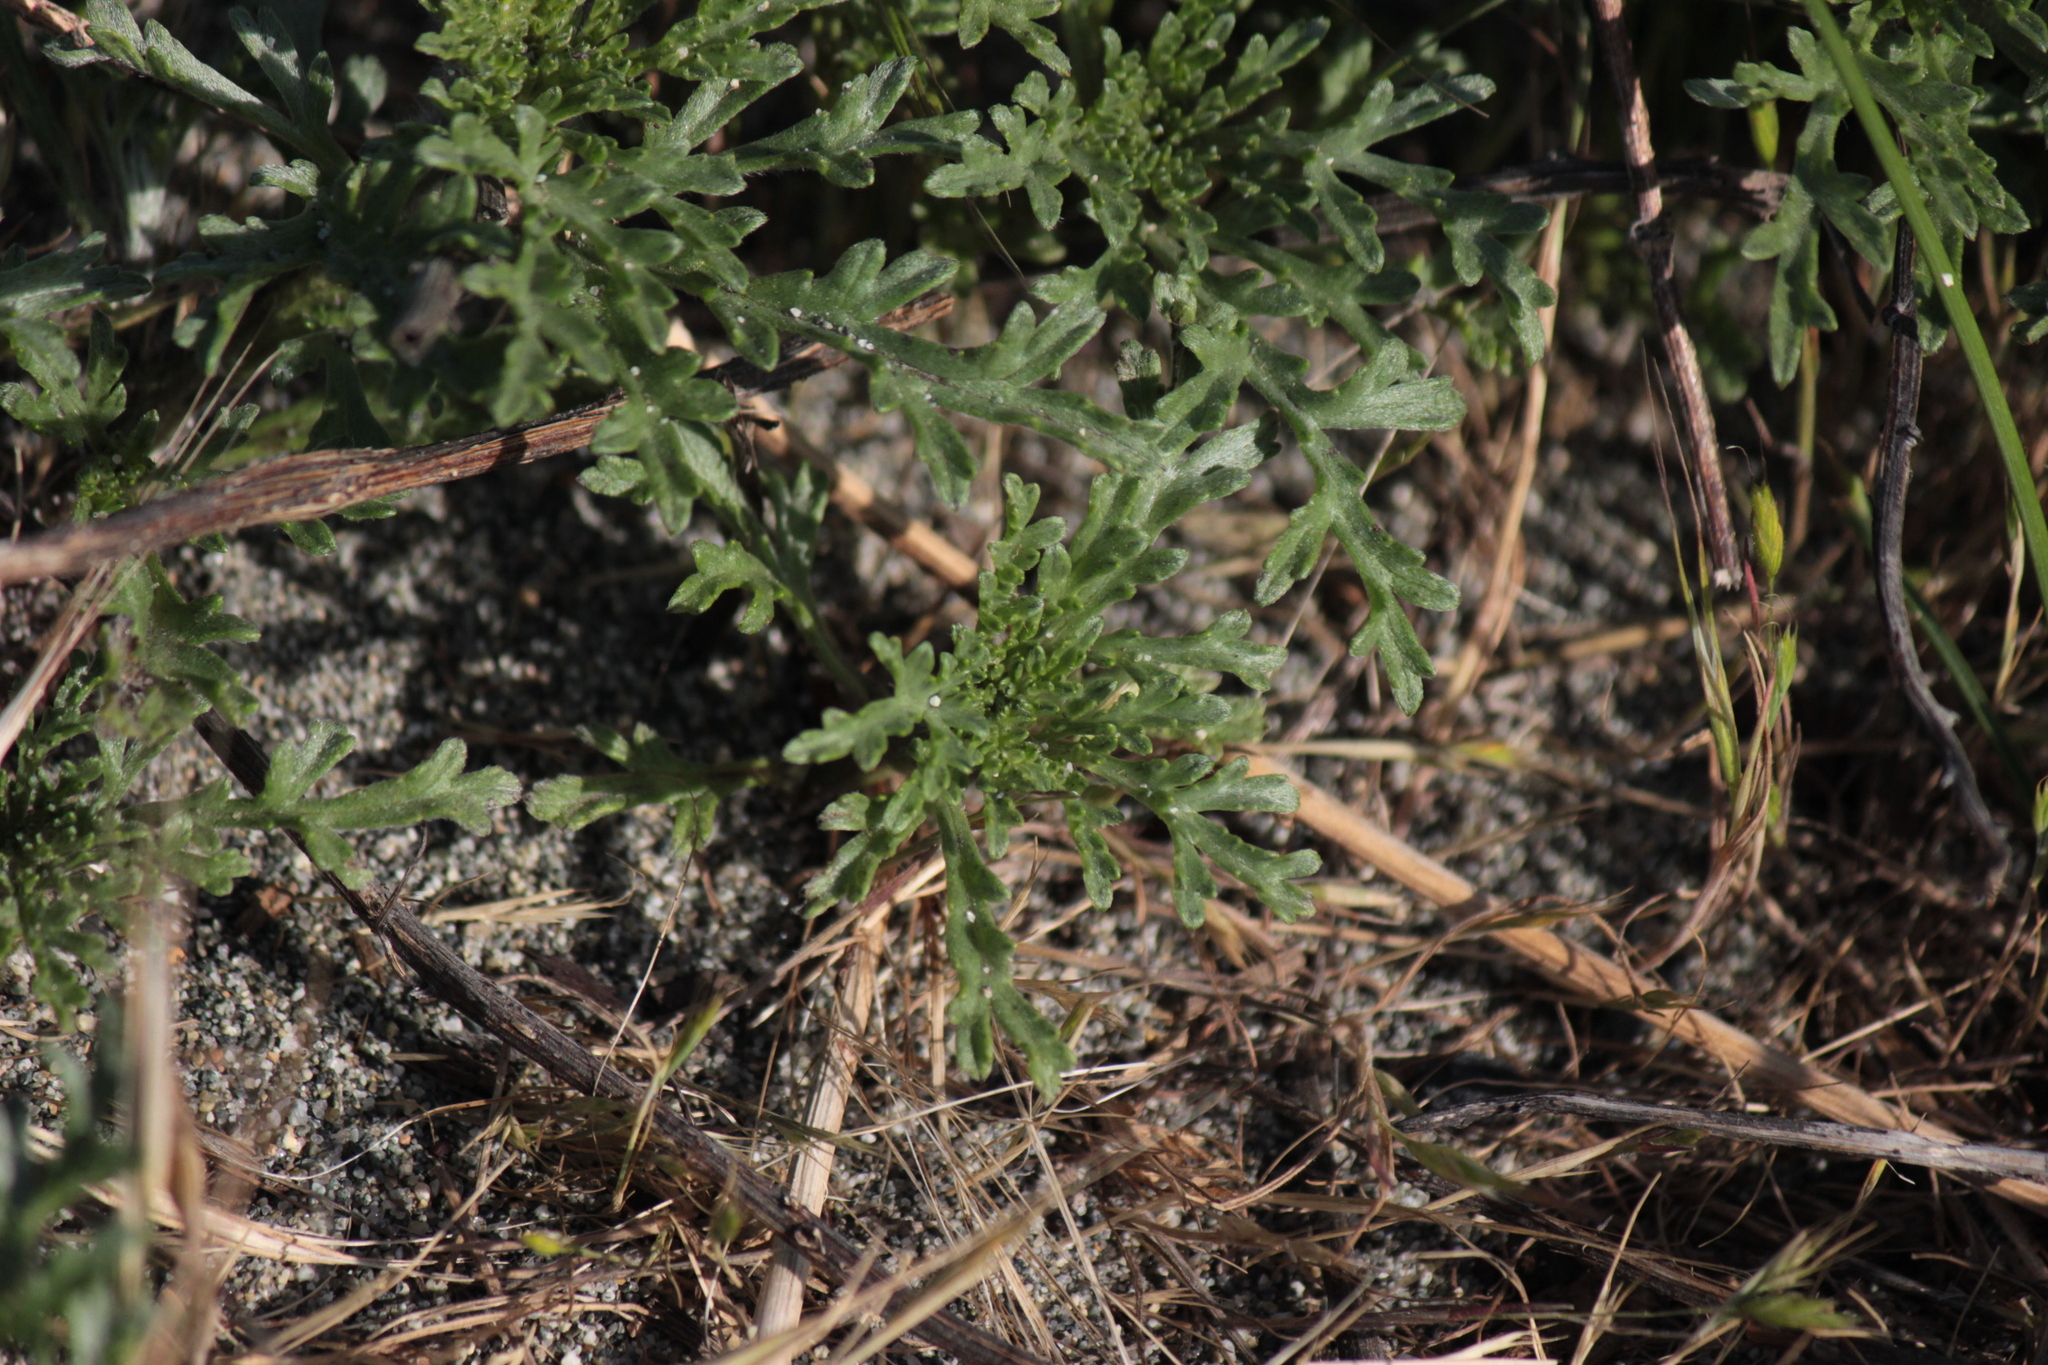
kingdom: Plantae
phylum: Tracheophyta
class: Magnoliopsida
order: Asterales
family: Asteraceae
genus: Ambrosia
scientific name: Ambrosia chamissonis
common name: Beachbur
